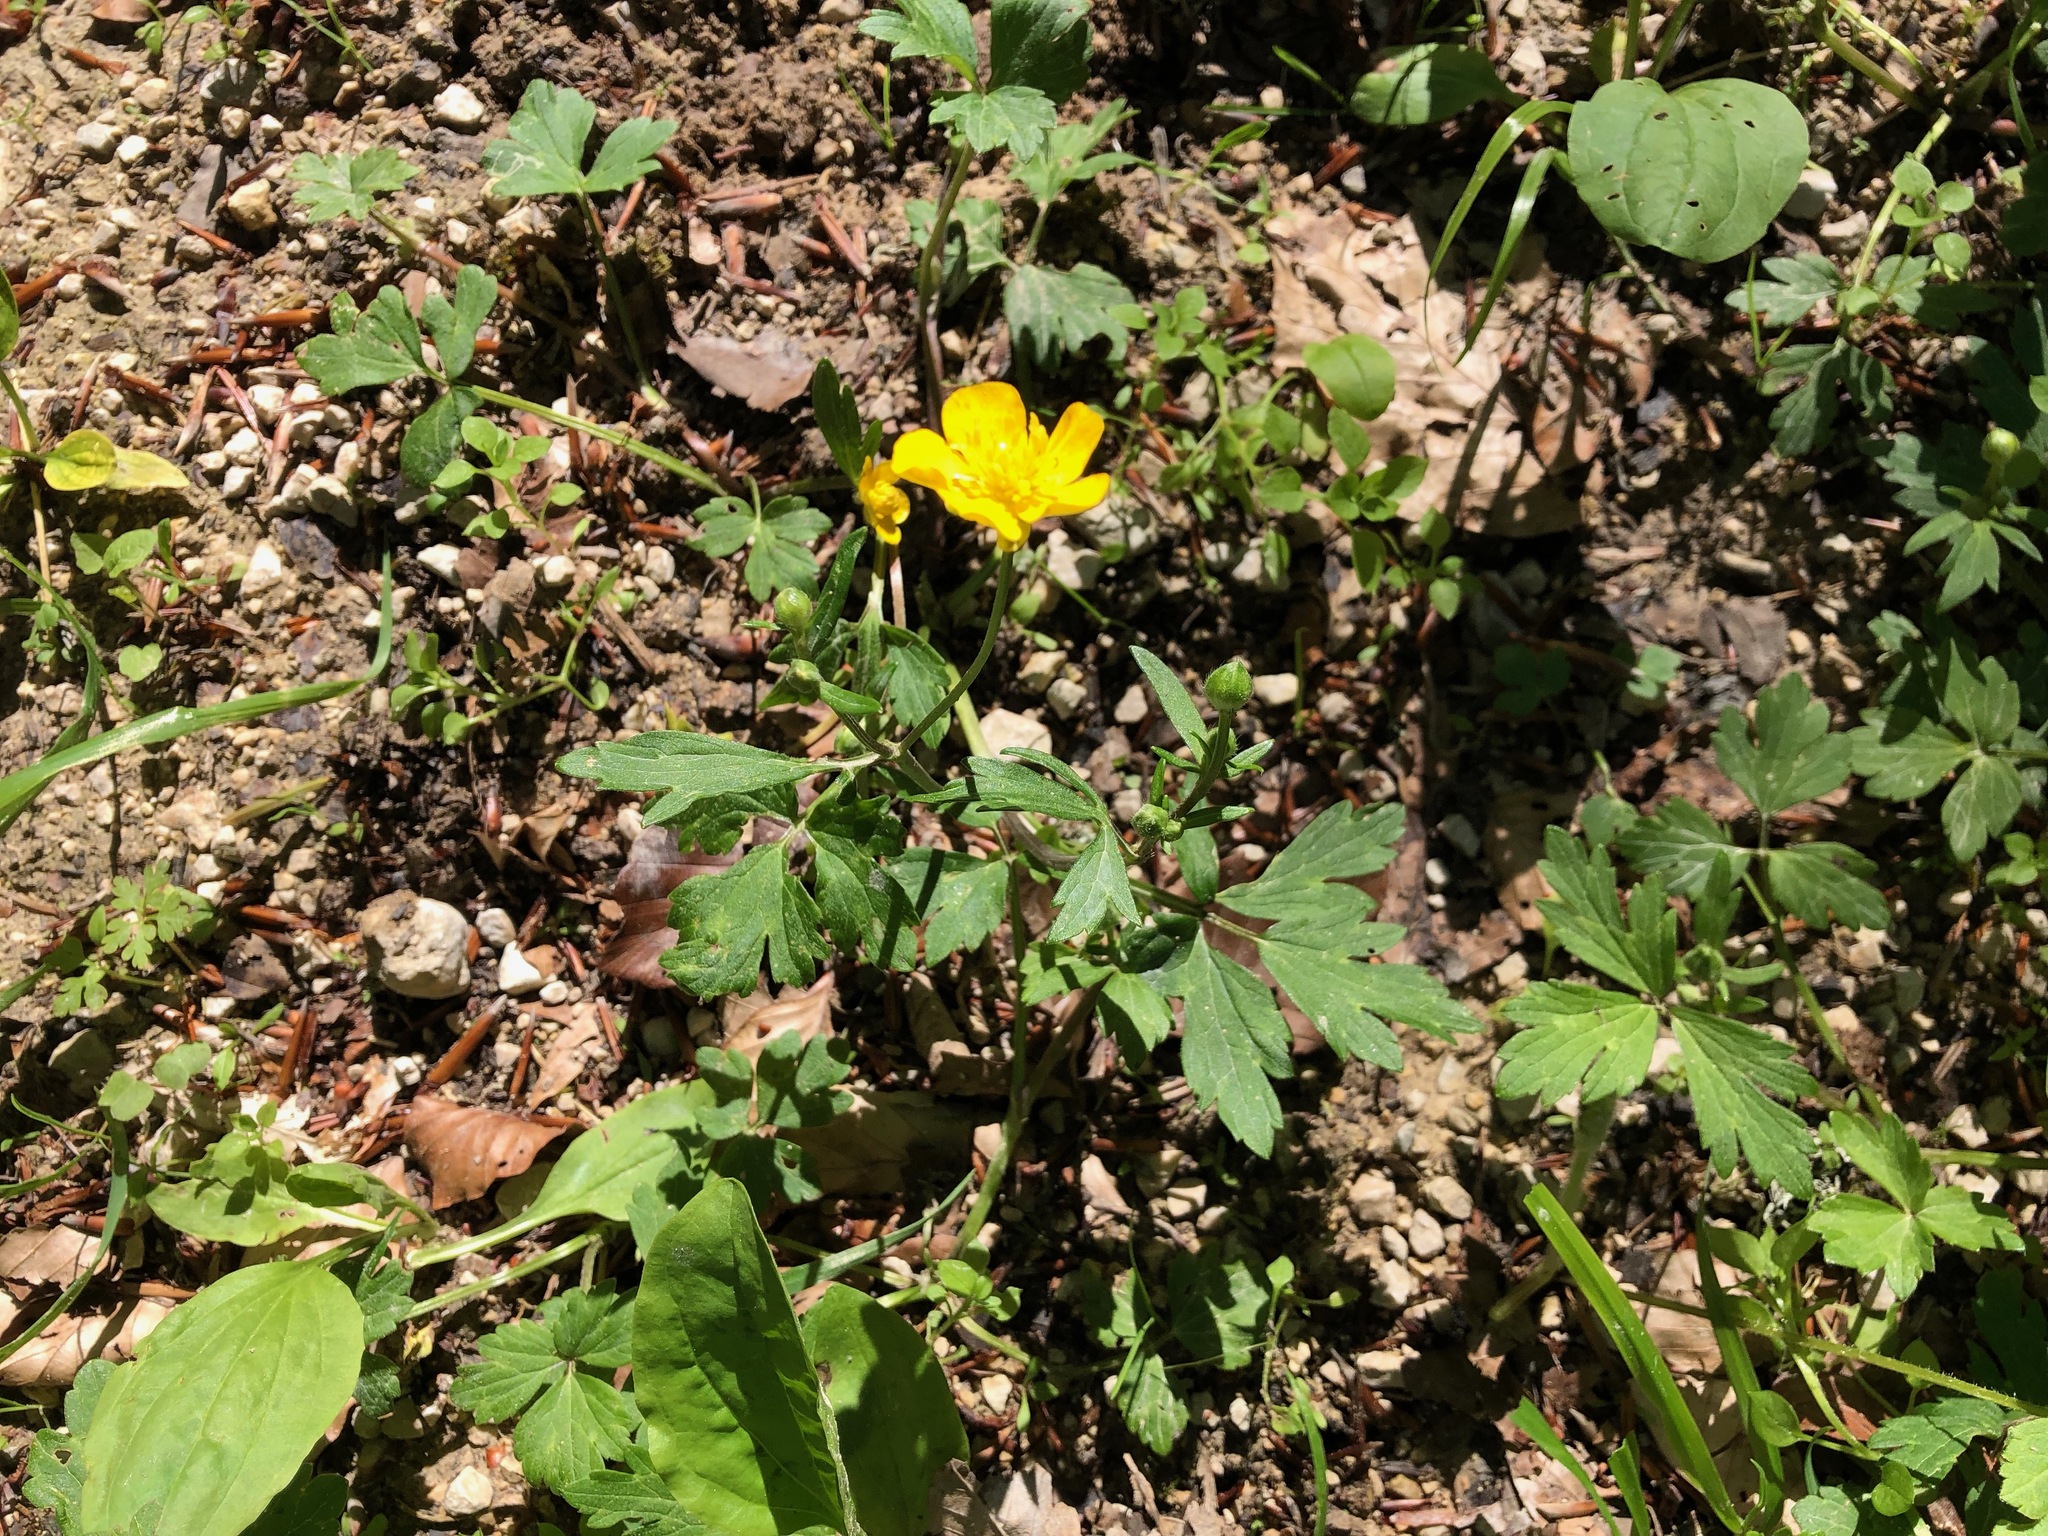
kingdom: Plantae
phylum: Tracheophyta
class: Magnoliopsida
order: Ranunculales
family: Ranunculaceae
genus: Ranunculus
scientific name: Ranunculus repens
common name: Creeping buttercup
